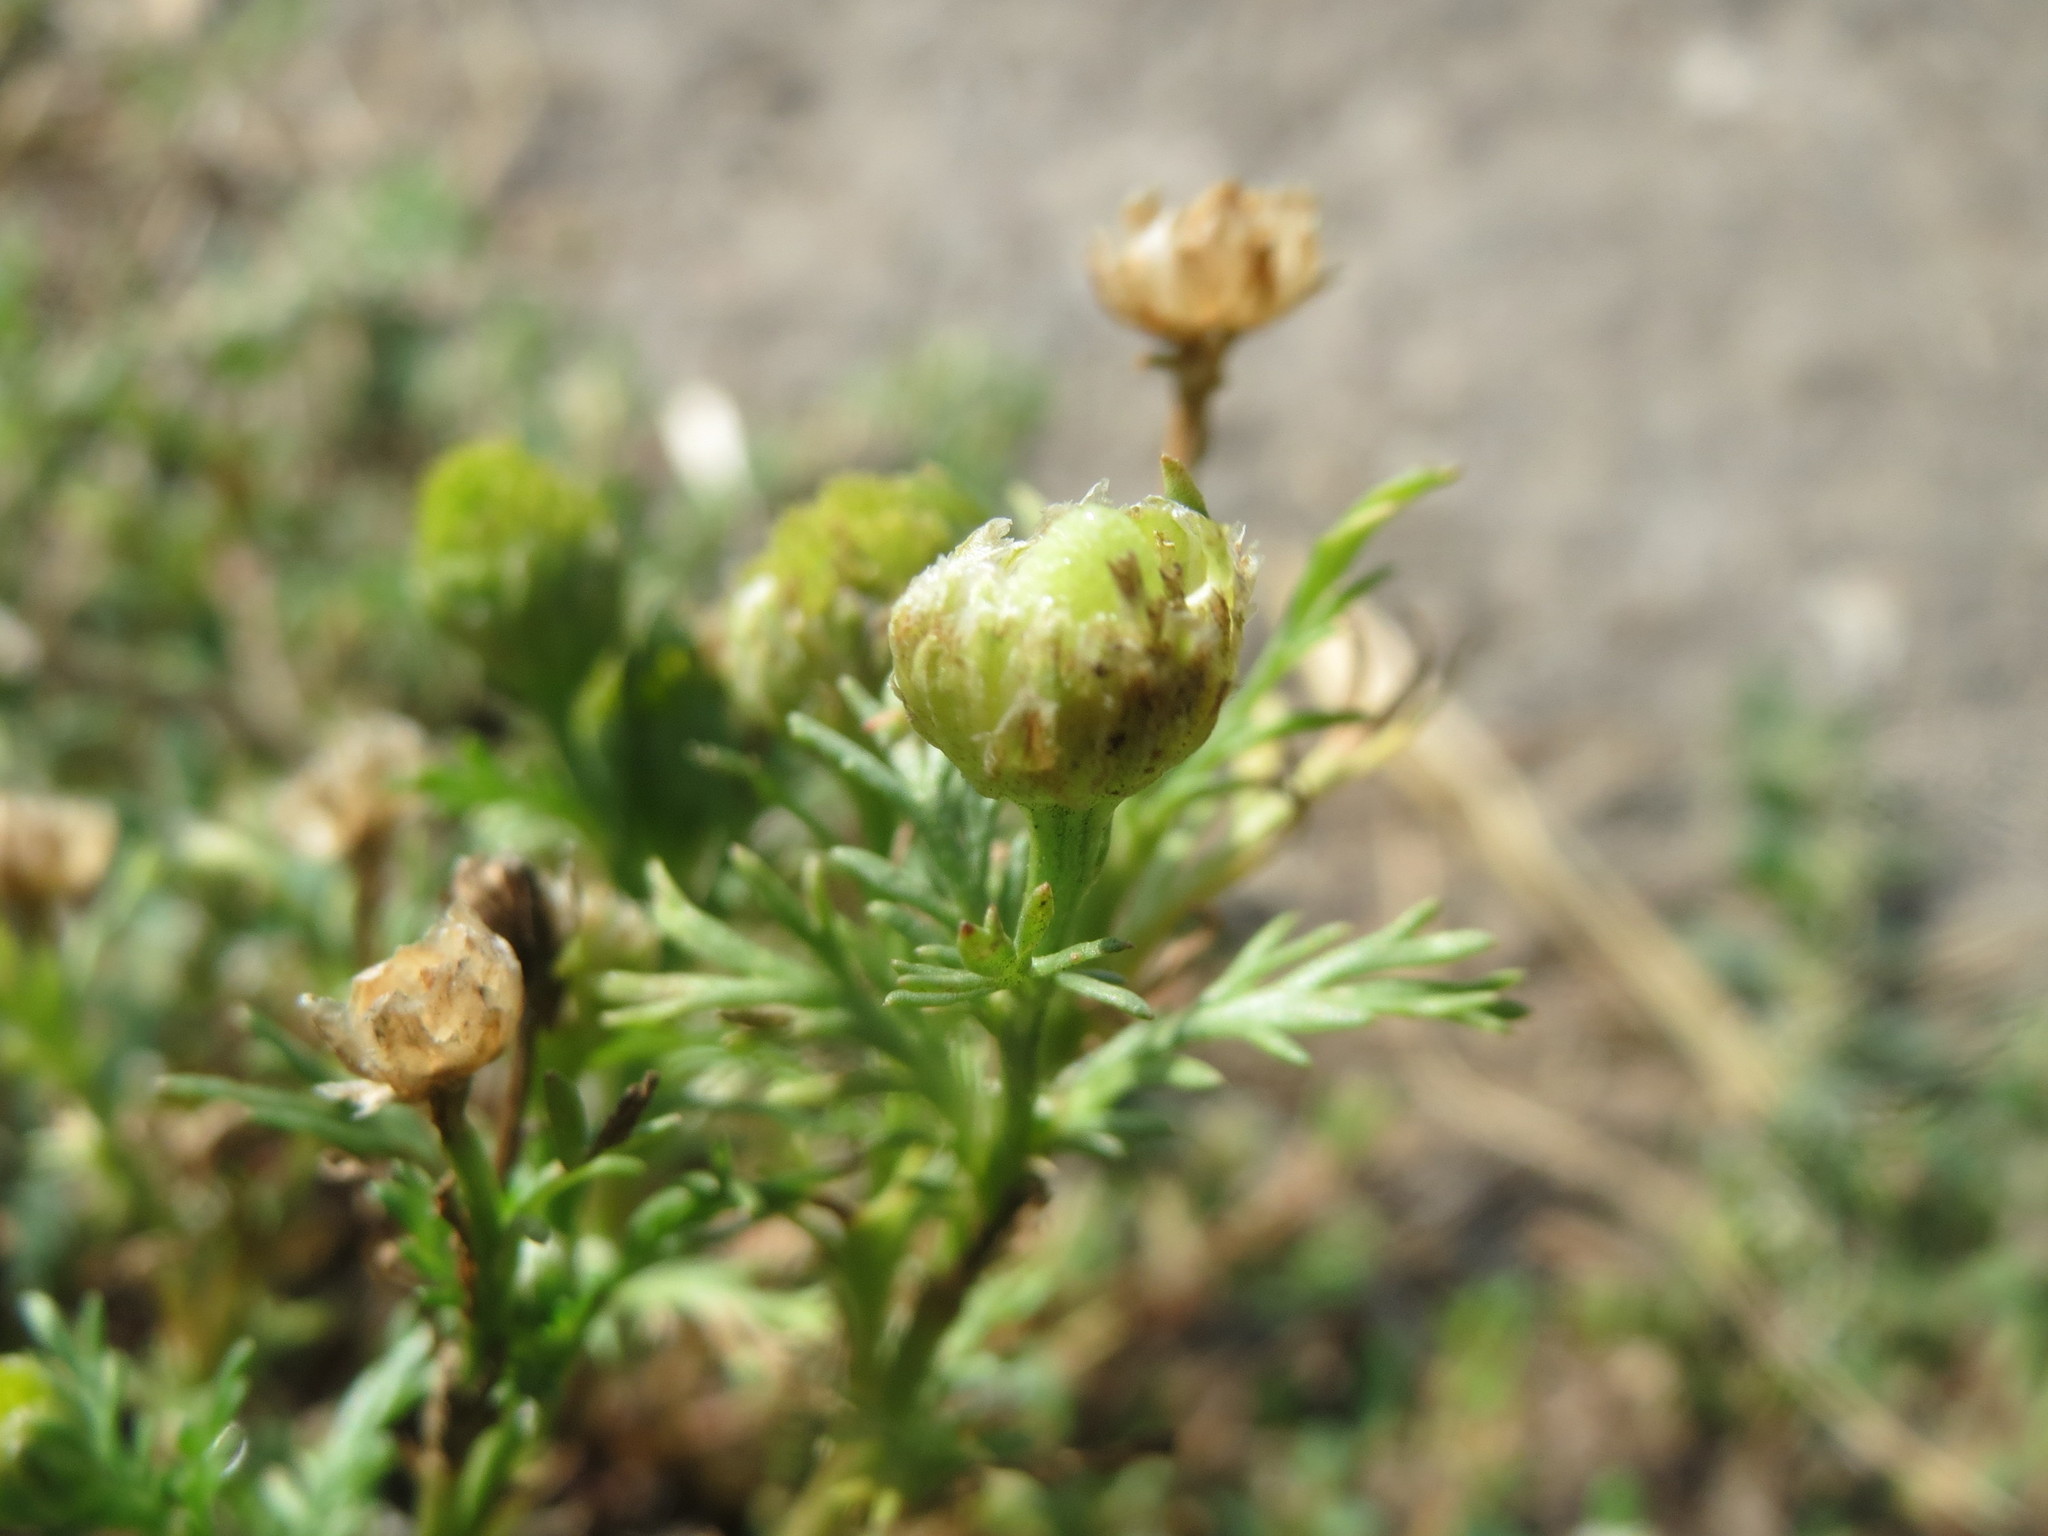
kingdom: Plantae
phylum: Tracheophyta
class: Magnoliopsida
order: Asterales
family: Asteraceae
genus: Matricaria
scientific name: Matricaria discoidea
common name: Disc mayweed
